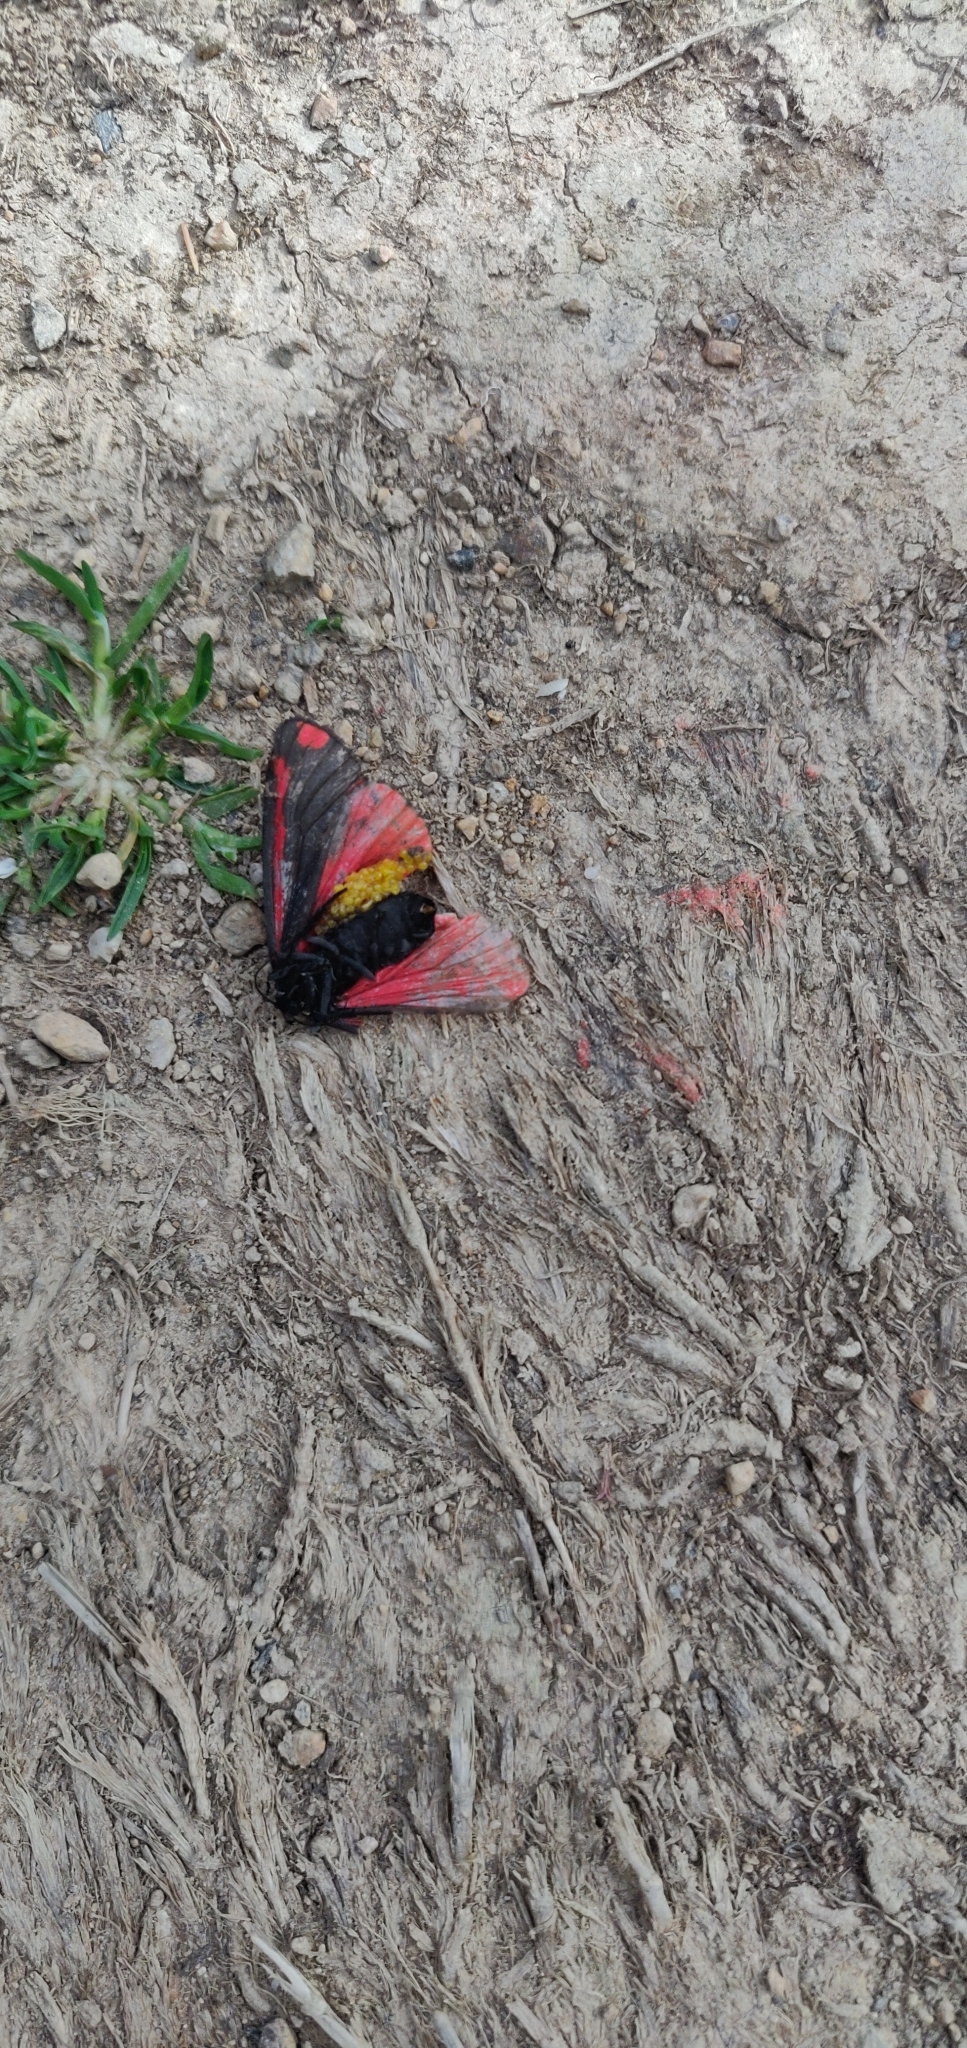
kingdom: Animalia
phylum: Arthropoda
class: Insecta
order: Lepidoptera
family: Erebidae
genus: Tyria
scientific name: Tyria jacobaeae
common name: Cinnabar
